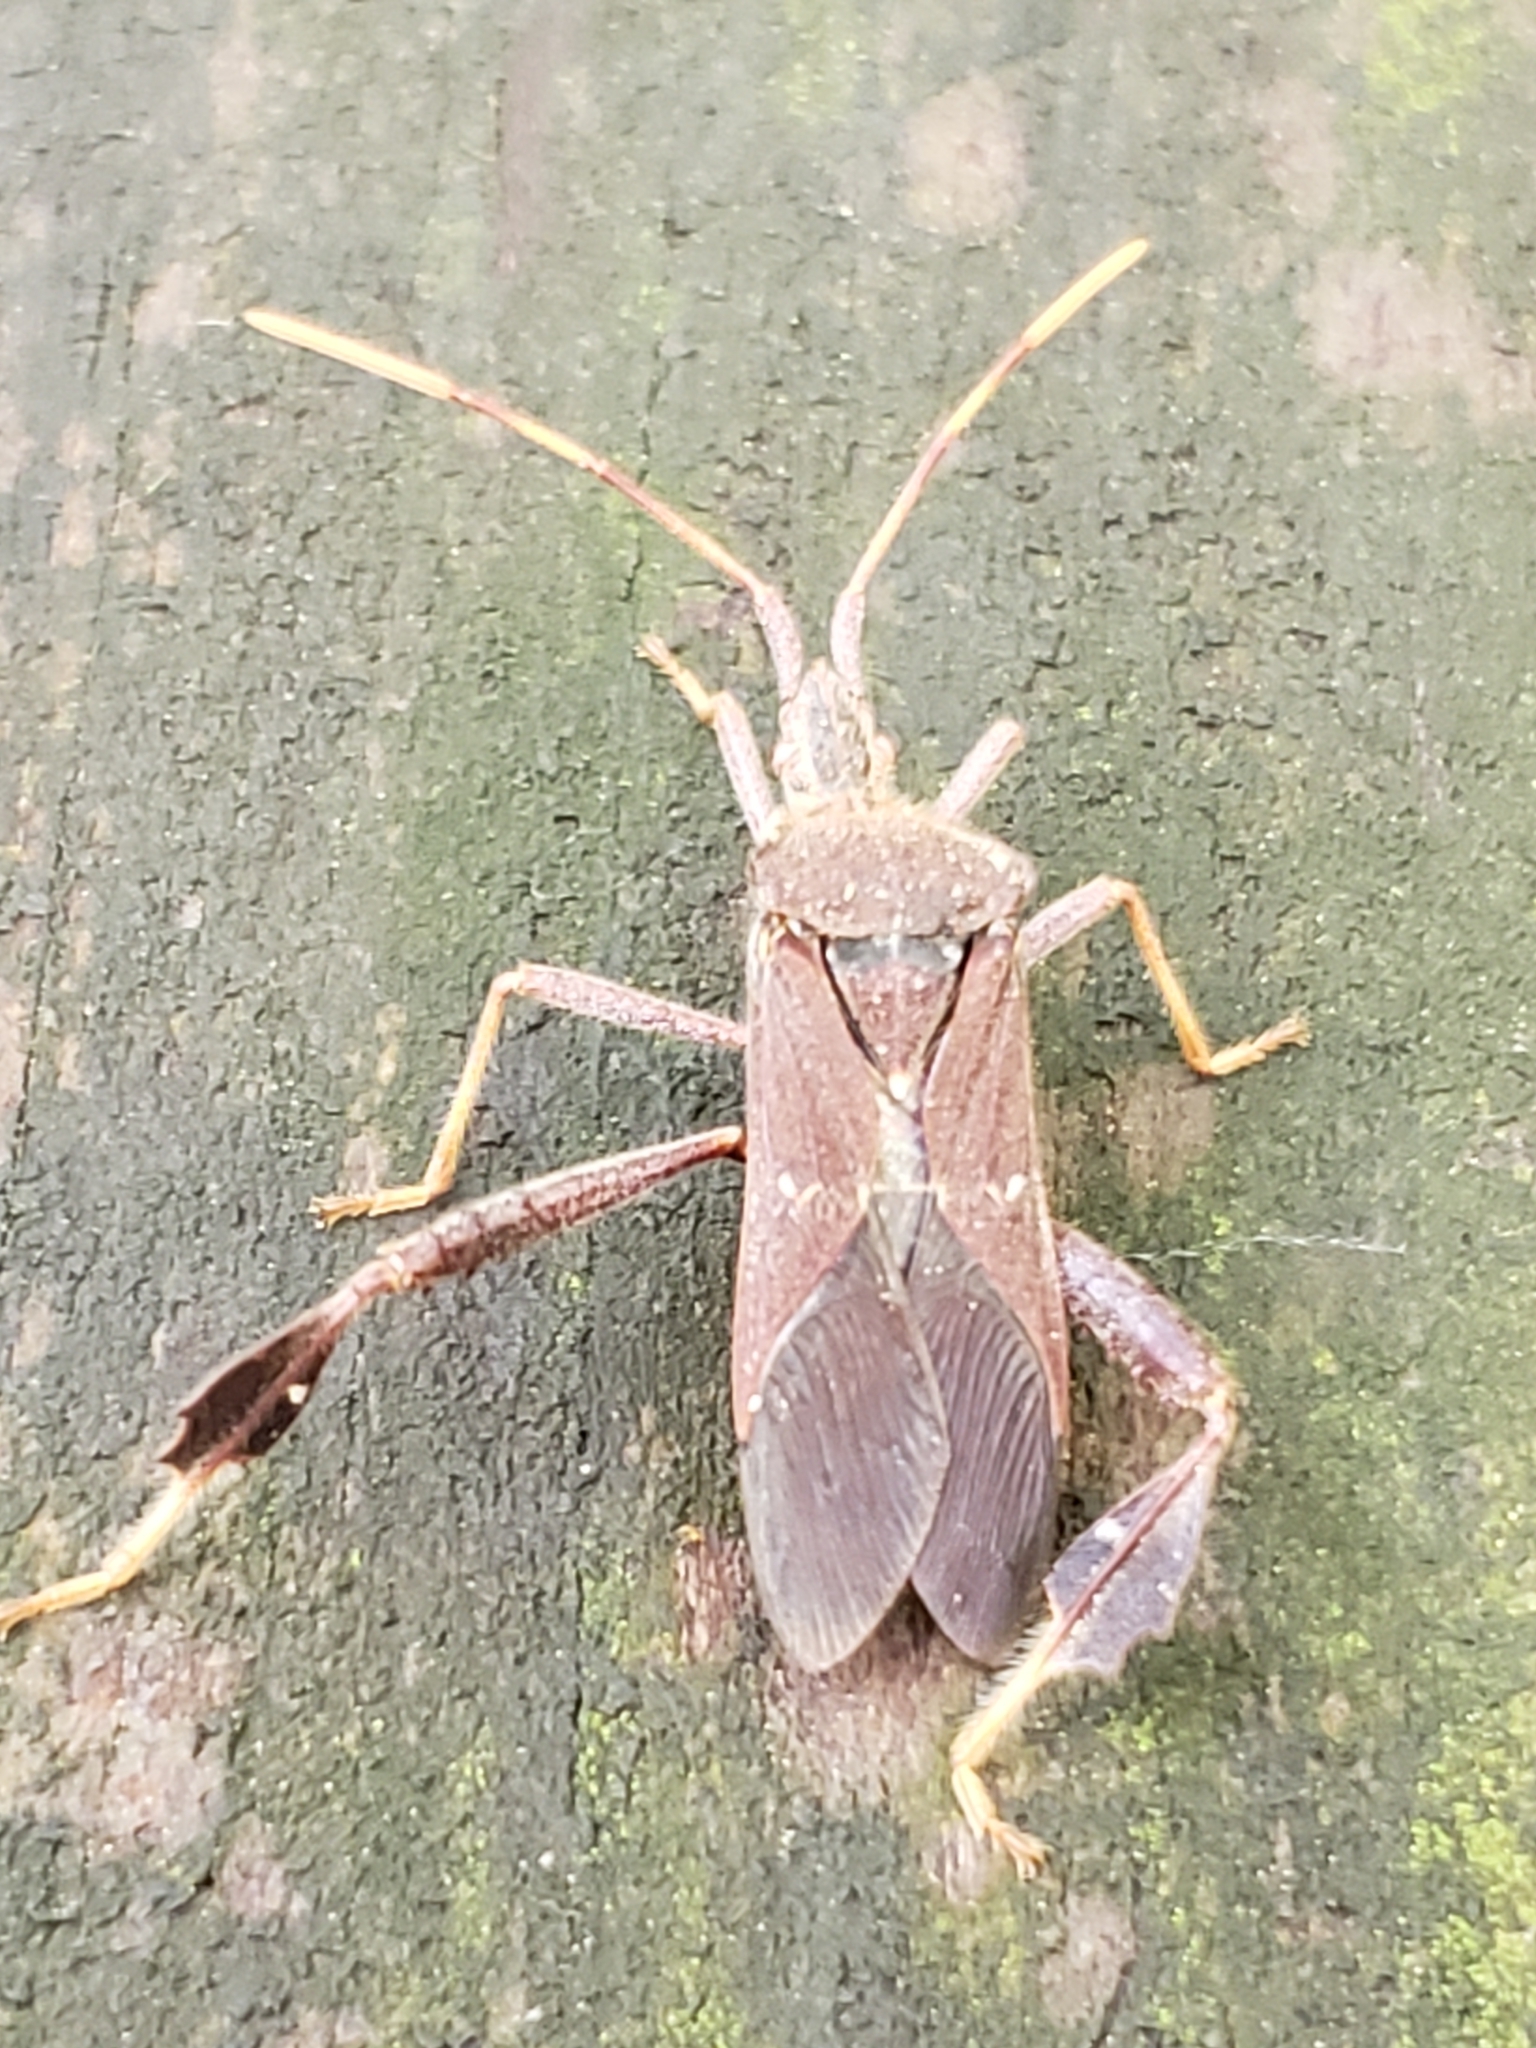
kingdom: Animalia
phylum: Arthropoda
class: Insecta
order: Hemiptera
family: Coreidae
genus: Leptoglossus
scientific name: Leptoglossus oppositus
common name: Northern leaf-footed bug
